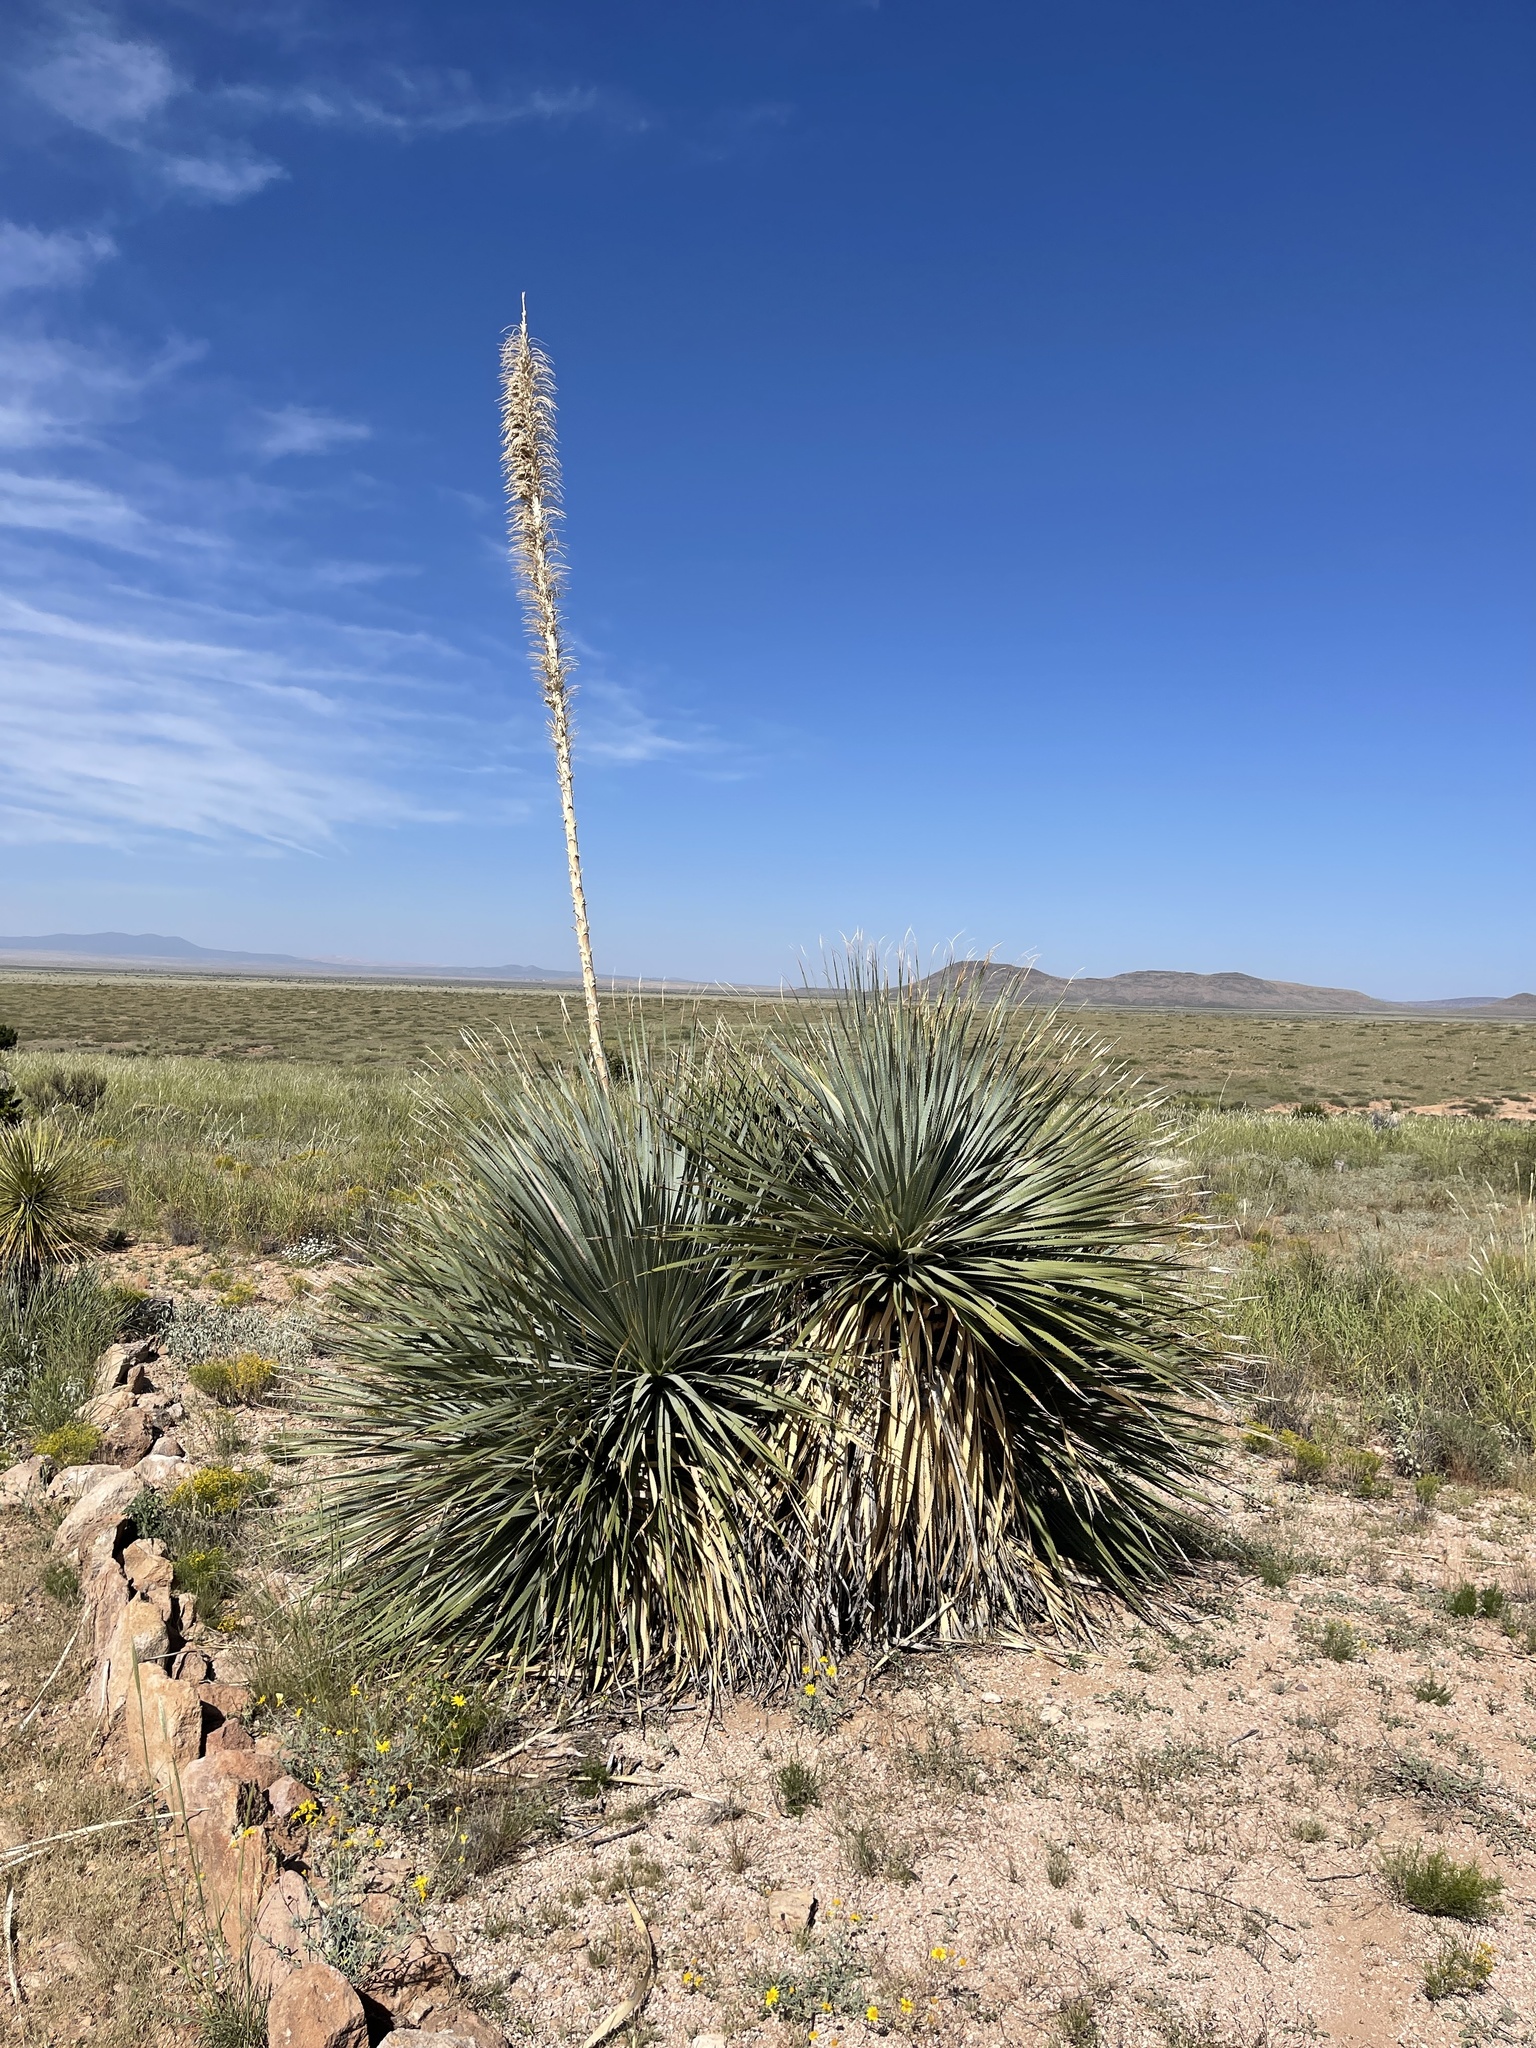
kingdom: Plantae
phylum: Tracheophyta
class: Liliopsida
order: Asparagales
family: Asparagaceae
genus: Dasylirion
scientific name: Dasylirion wheeleri
